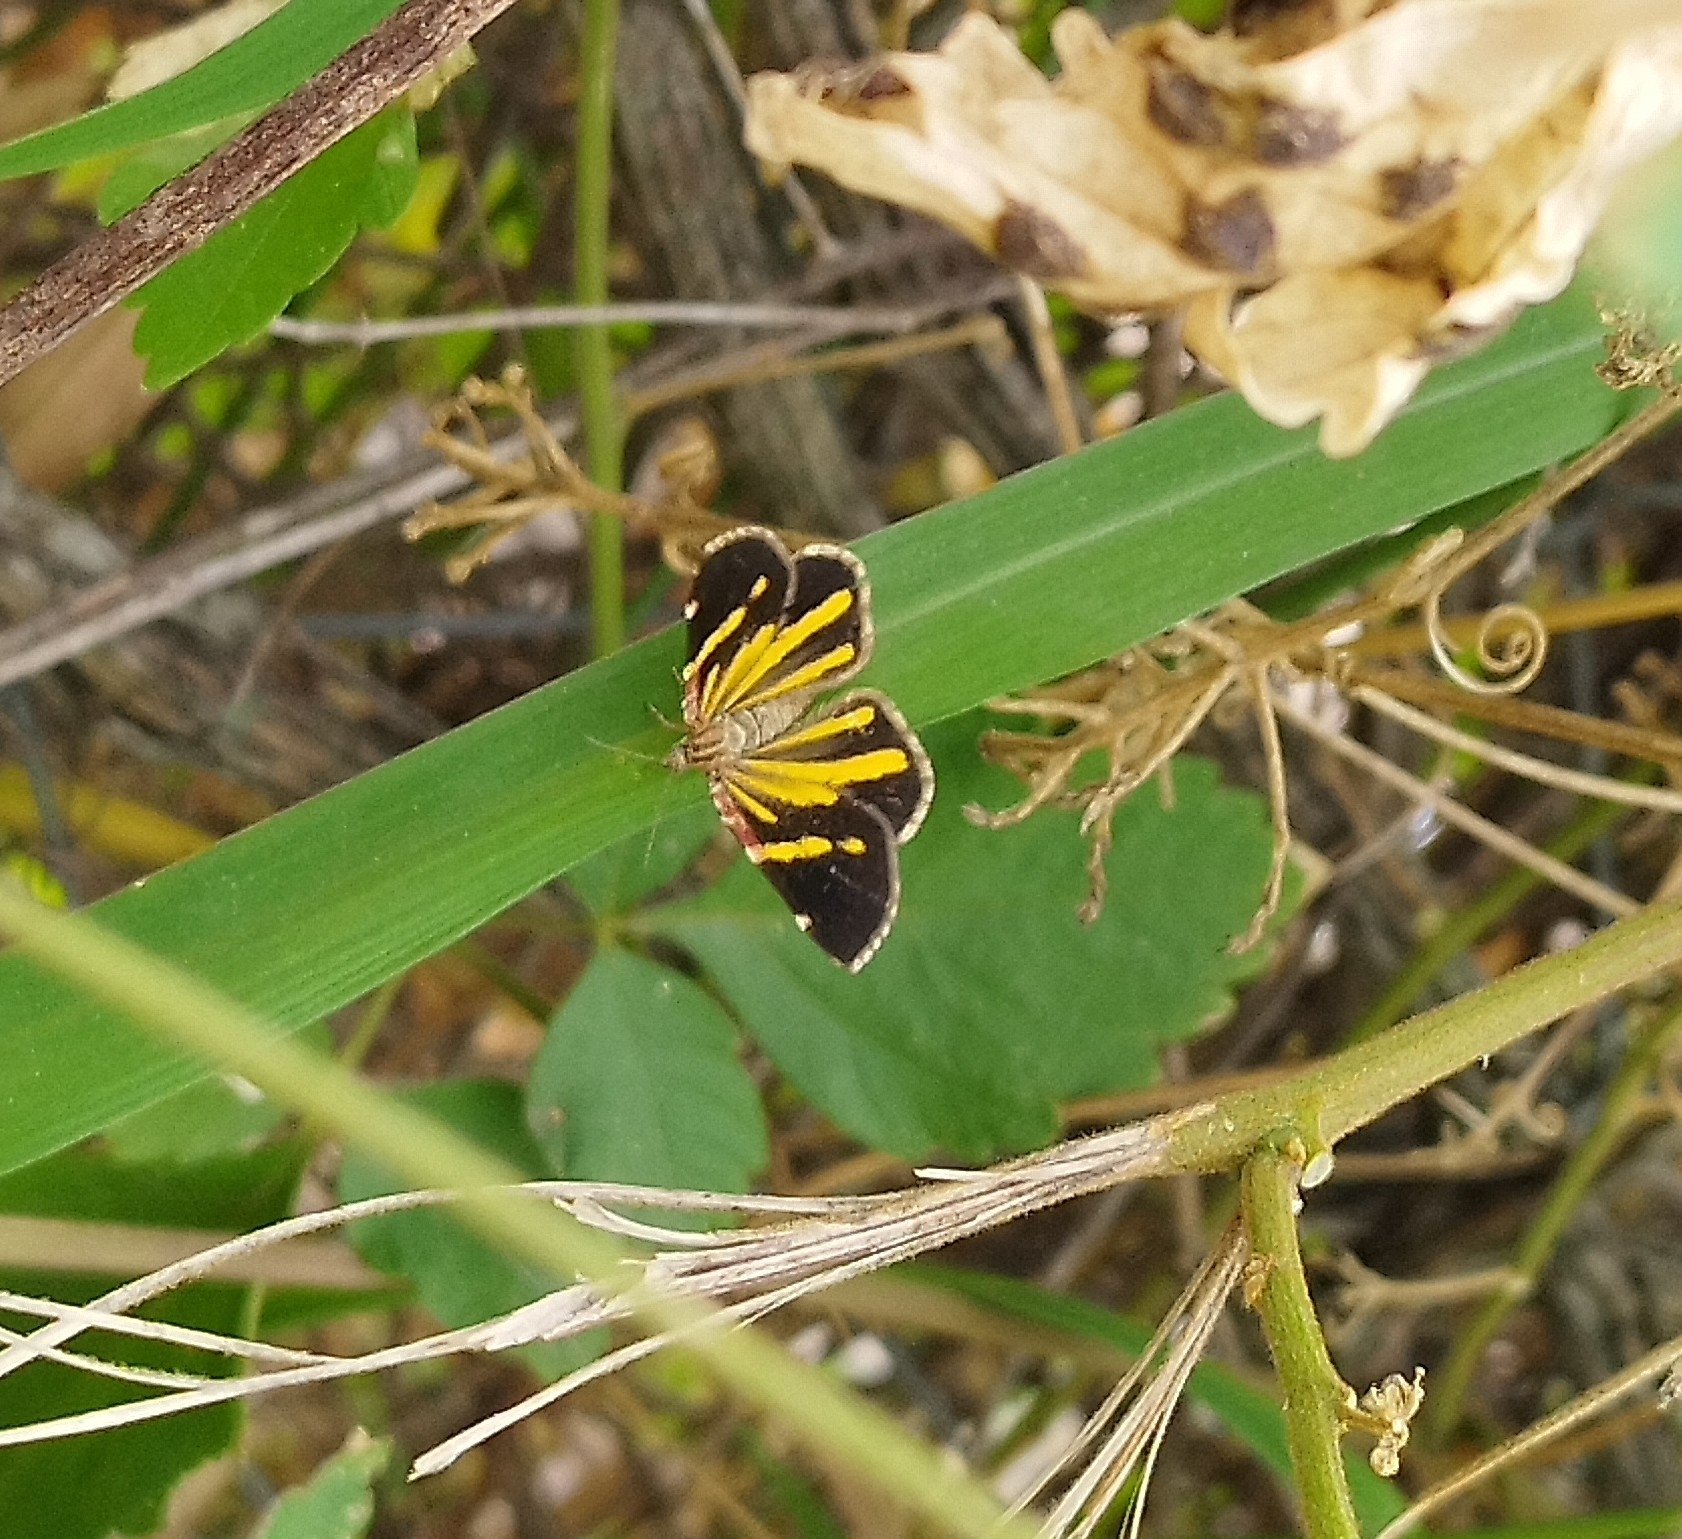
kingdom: Animalia
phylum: Arthropoda
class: Insecta
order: Lepidoptera
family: Geometridae
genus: Heterusia
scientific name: Heterusia quadruplicaria
